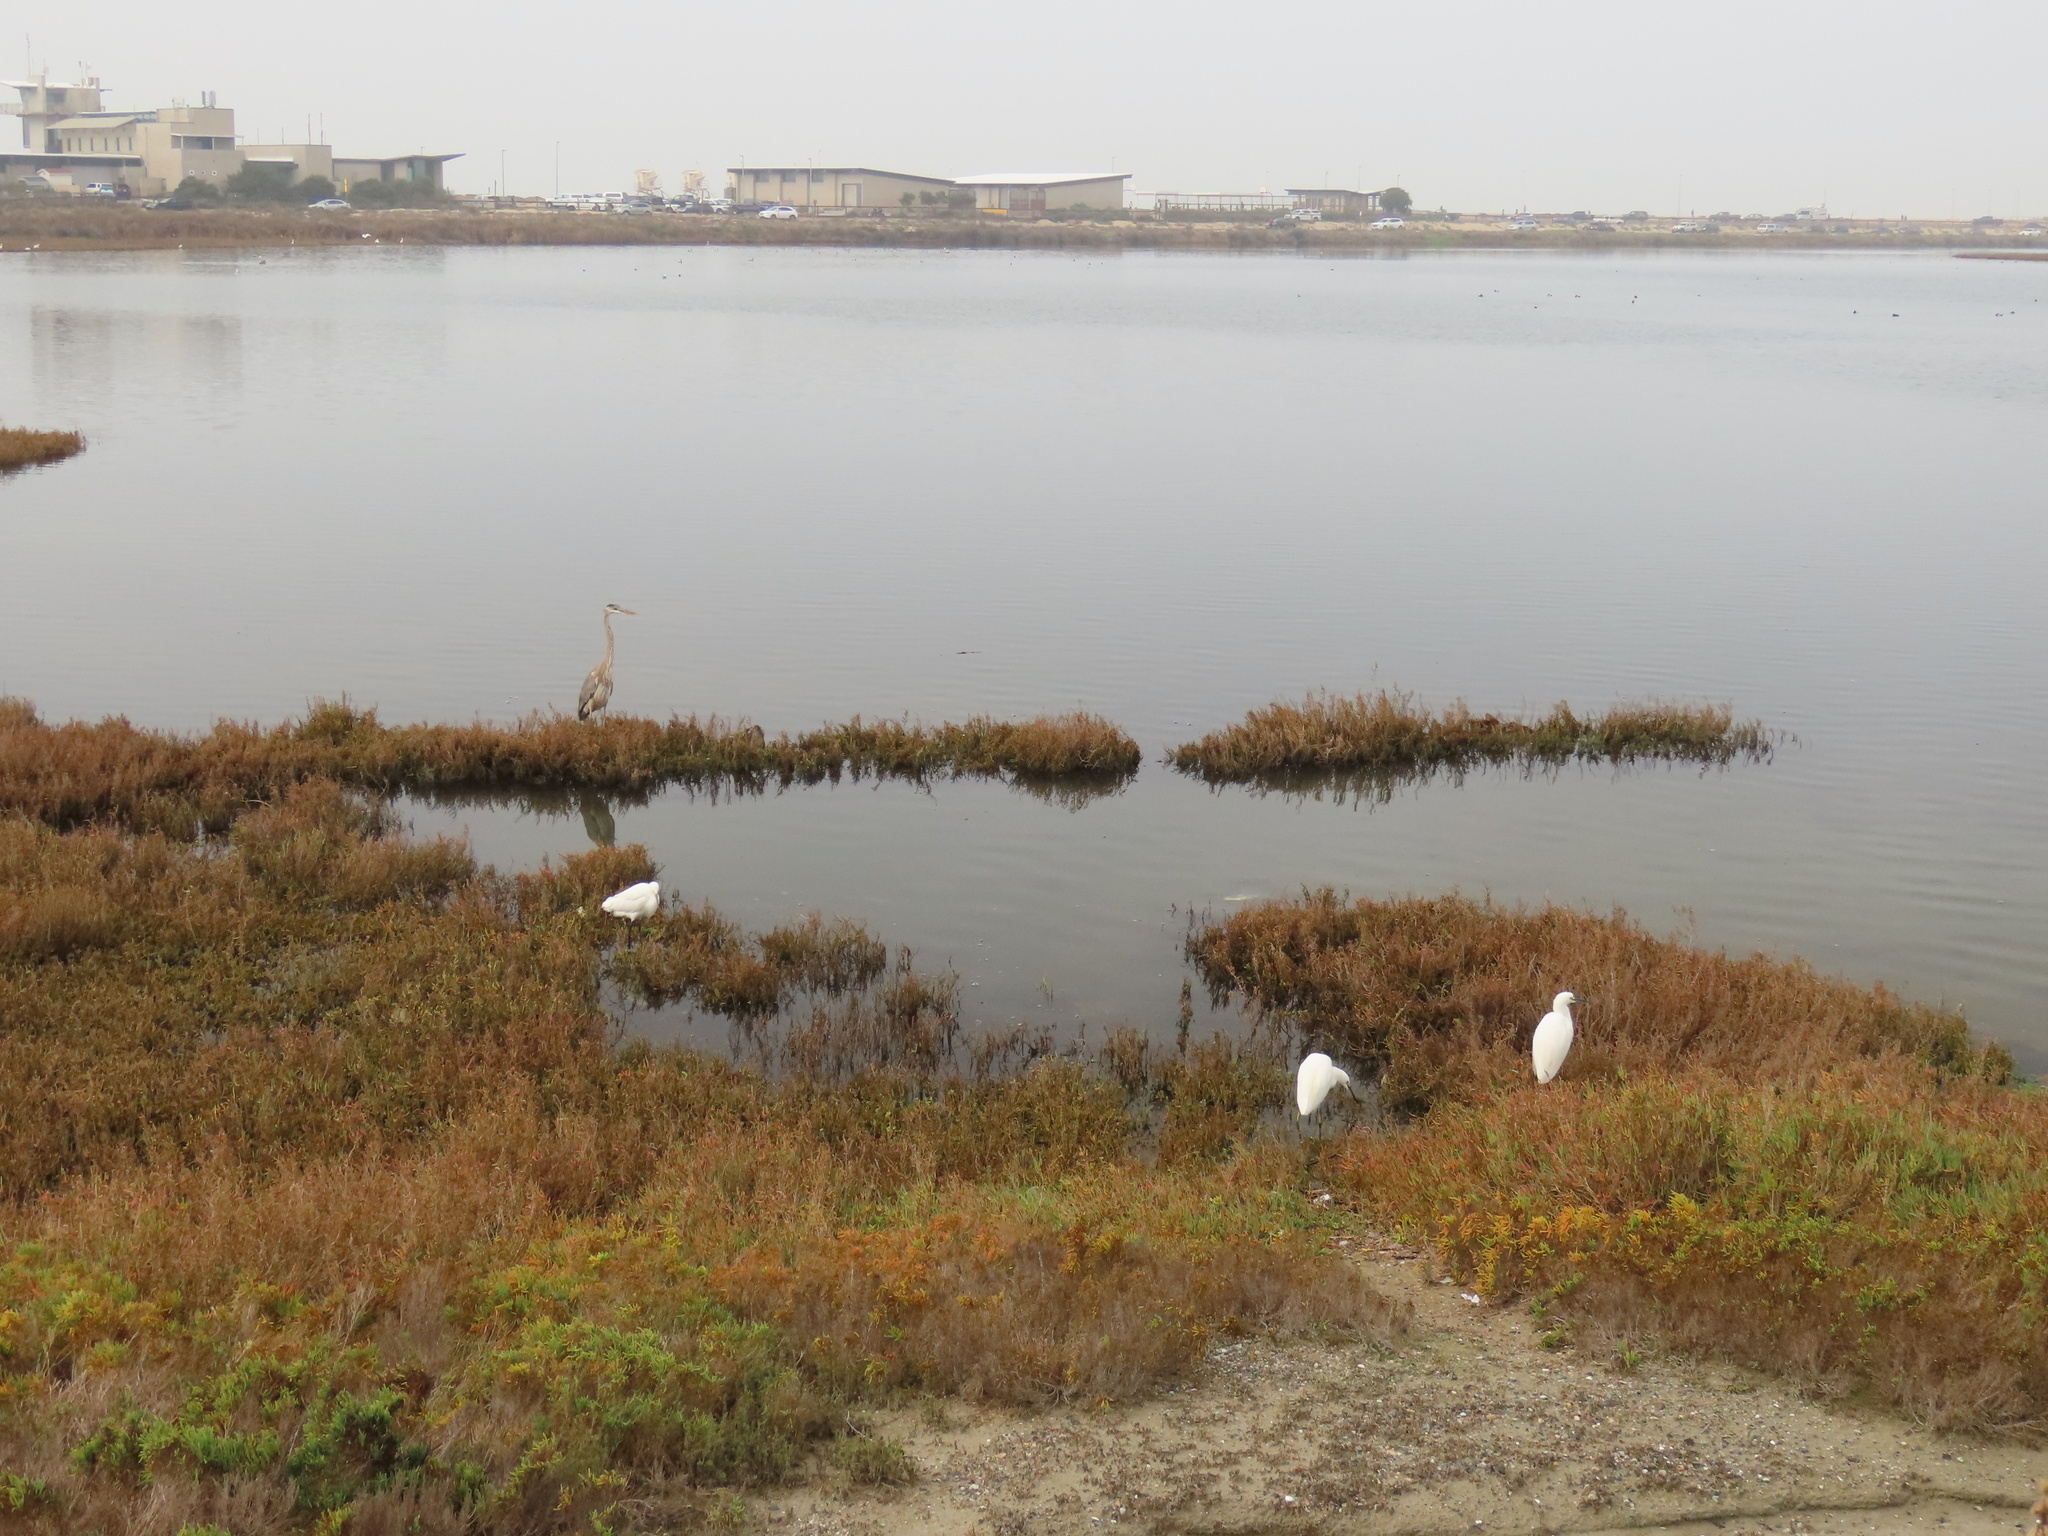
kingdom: Animalia
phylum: Chordata
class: Aves
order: Pelecaniformes
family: Ardeidae
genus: Ardea
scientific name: Ardea herodias
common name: Great blue heron
